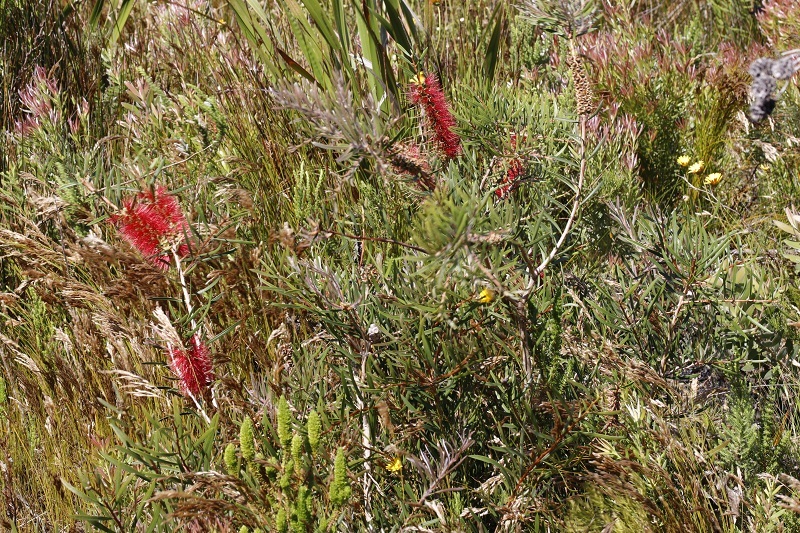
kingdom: Plantae
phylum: Tracheophyta
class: Magnoliopsida
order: Myrtales
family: Myrtaceae
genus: Callistemon
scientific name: Callistemon linearis
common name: Narrow-leaf bottlebrush
